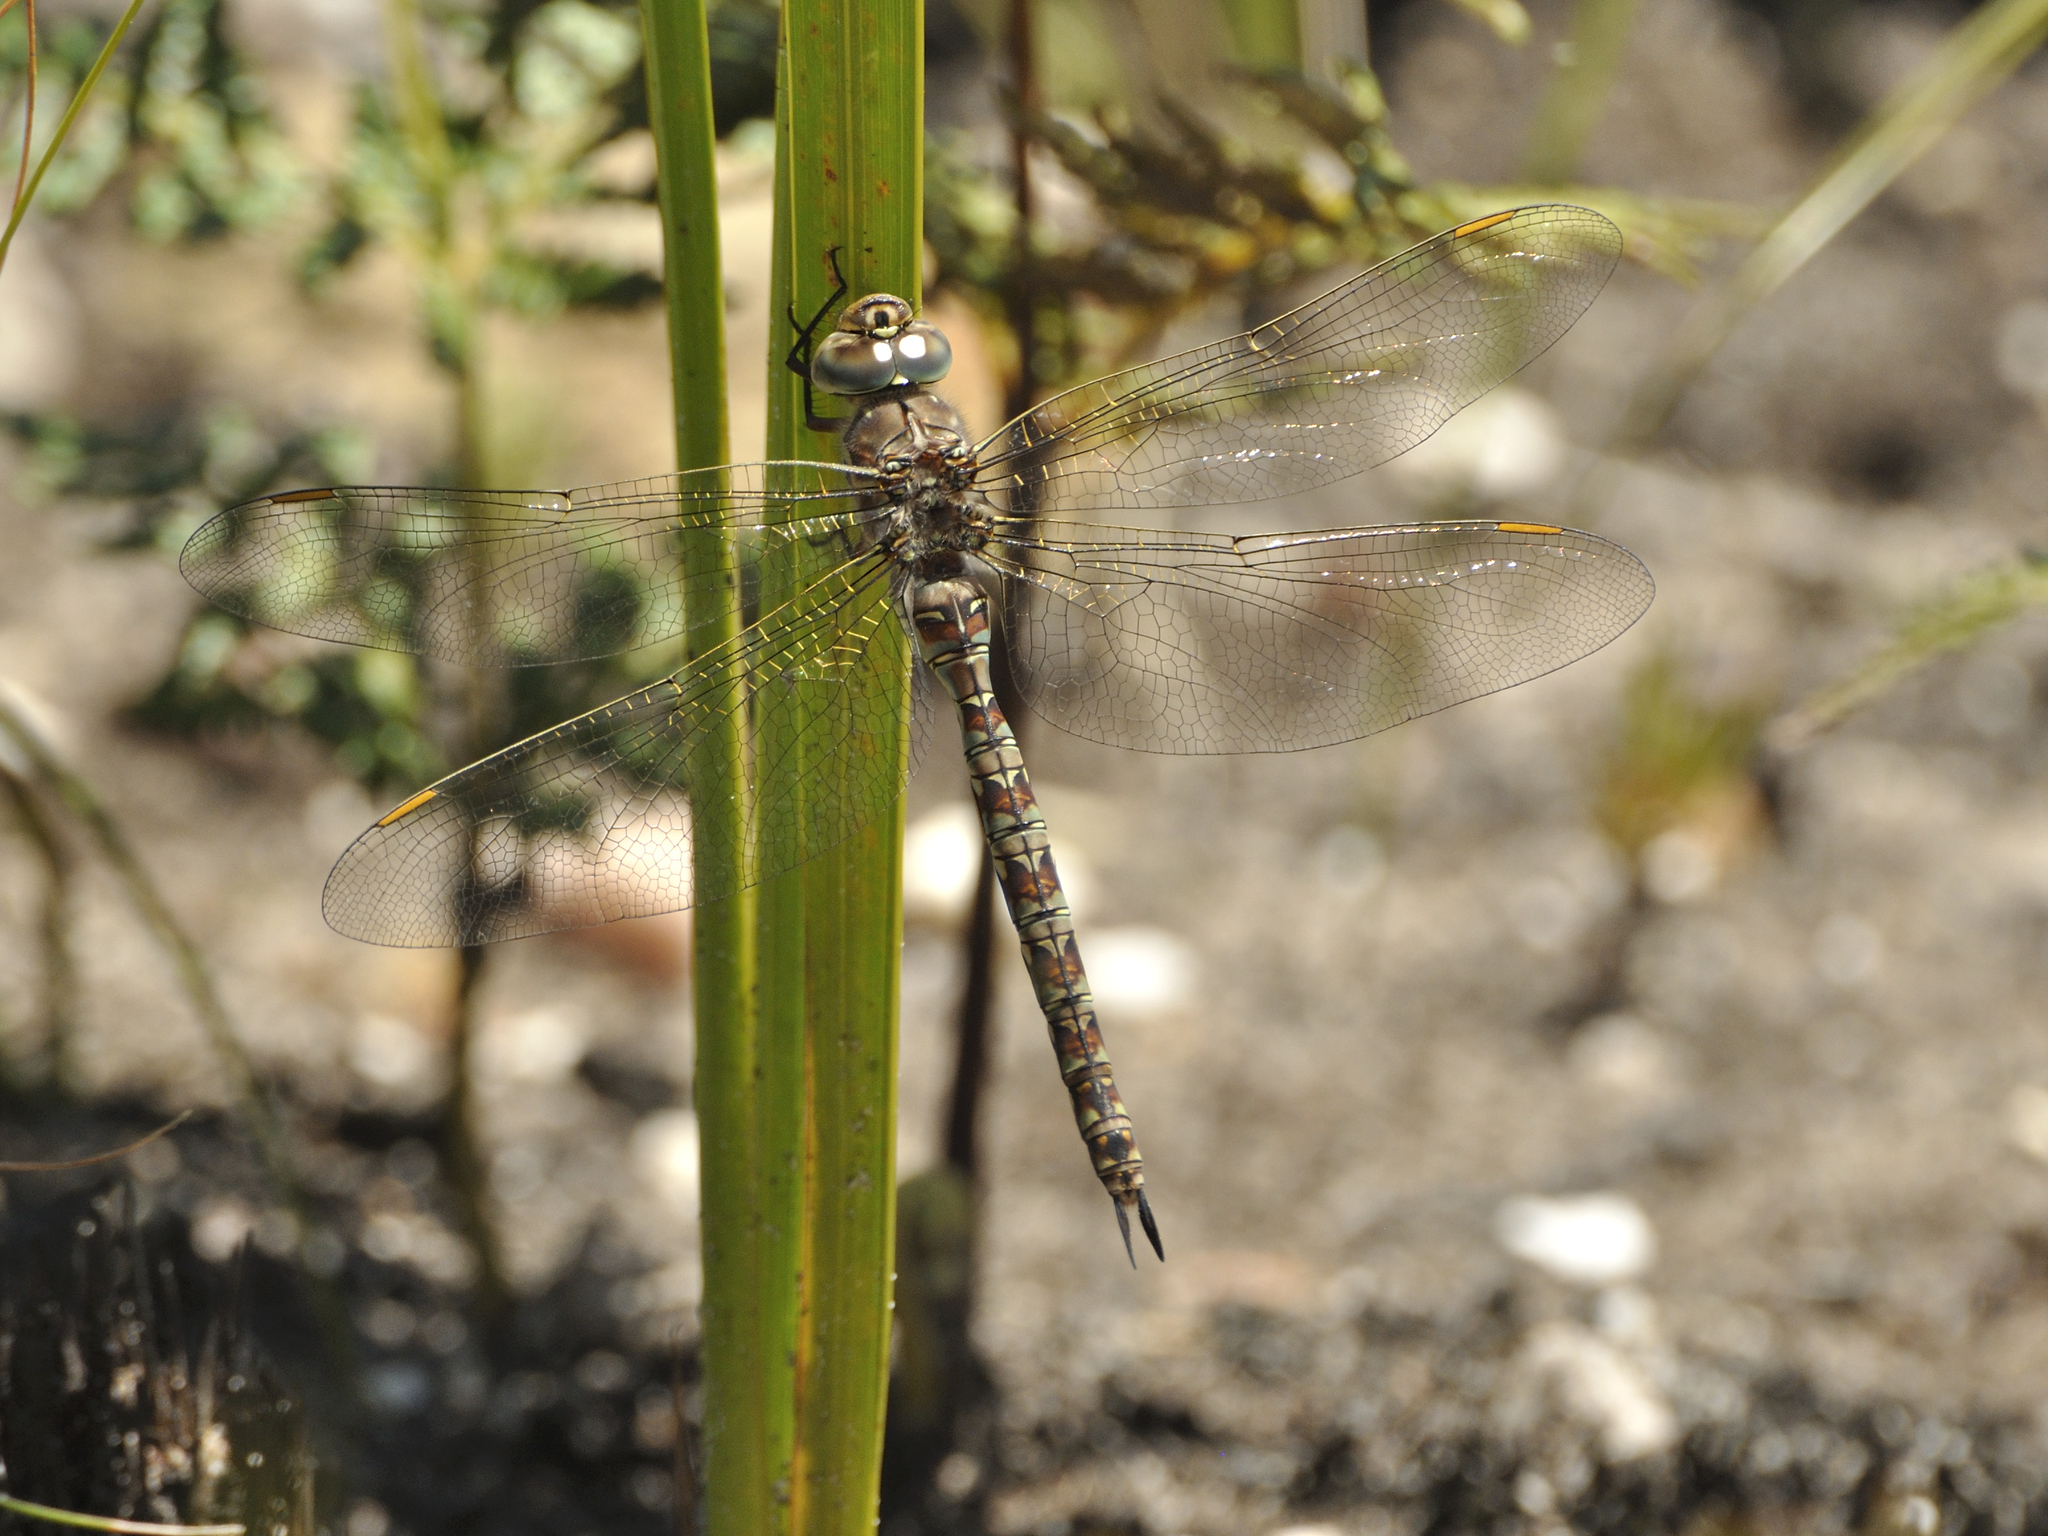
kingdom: Animalia
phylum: Arthropoda
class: Insecta
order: Odonata
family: Aeshnidae
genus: Pinheyschna
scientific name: Pinheyschna subpupillata
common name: Stream hawker
